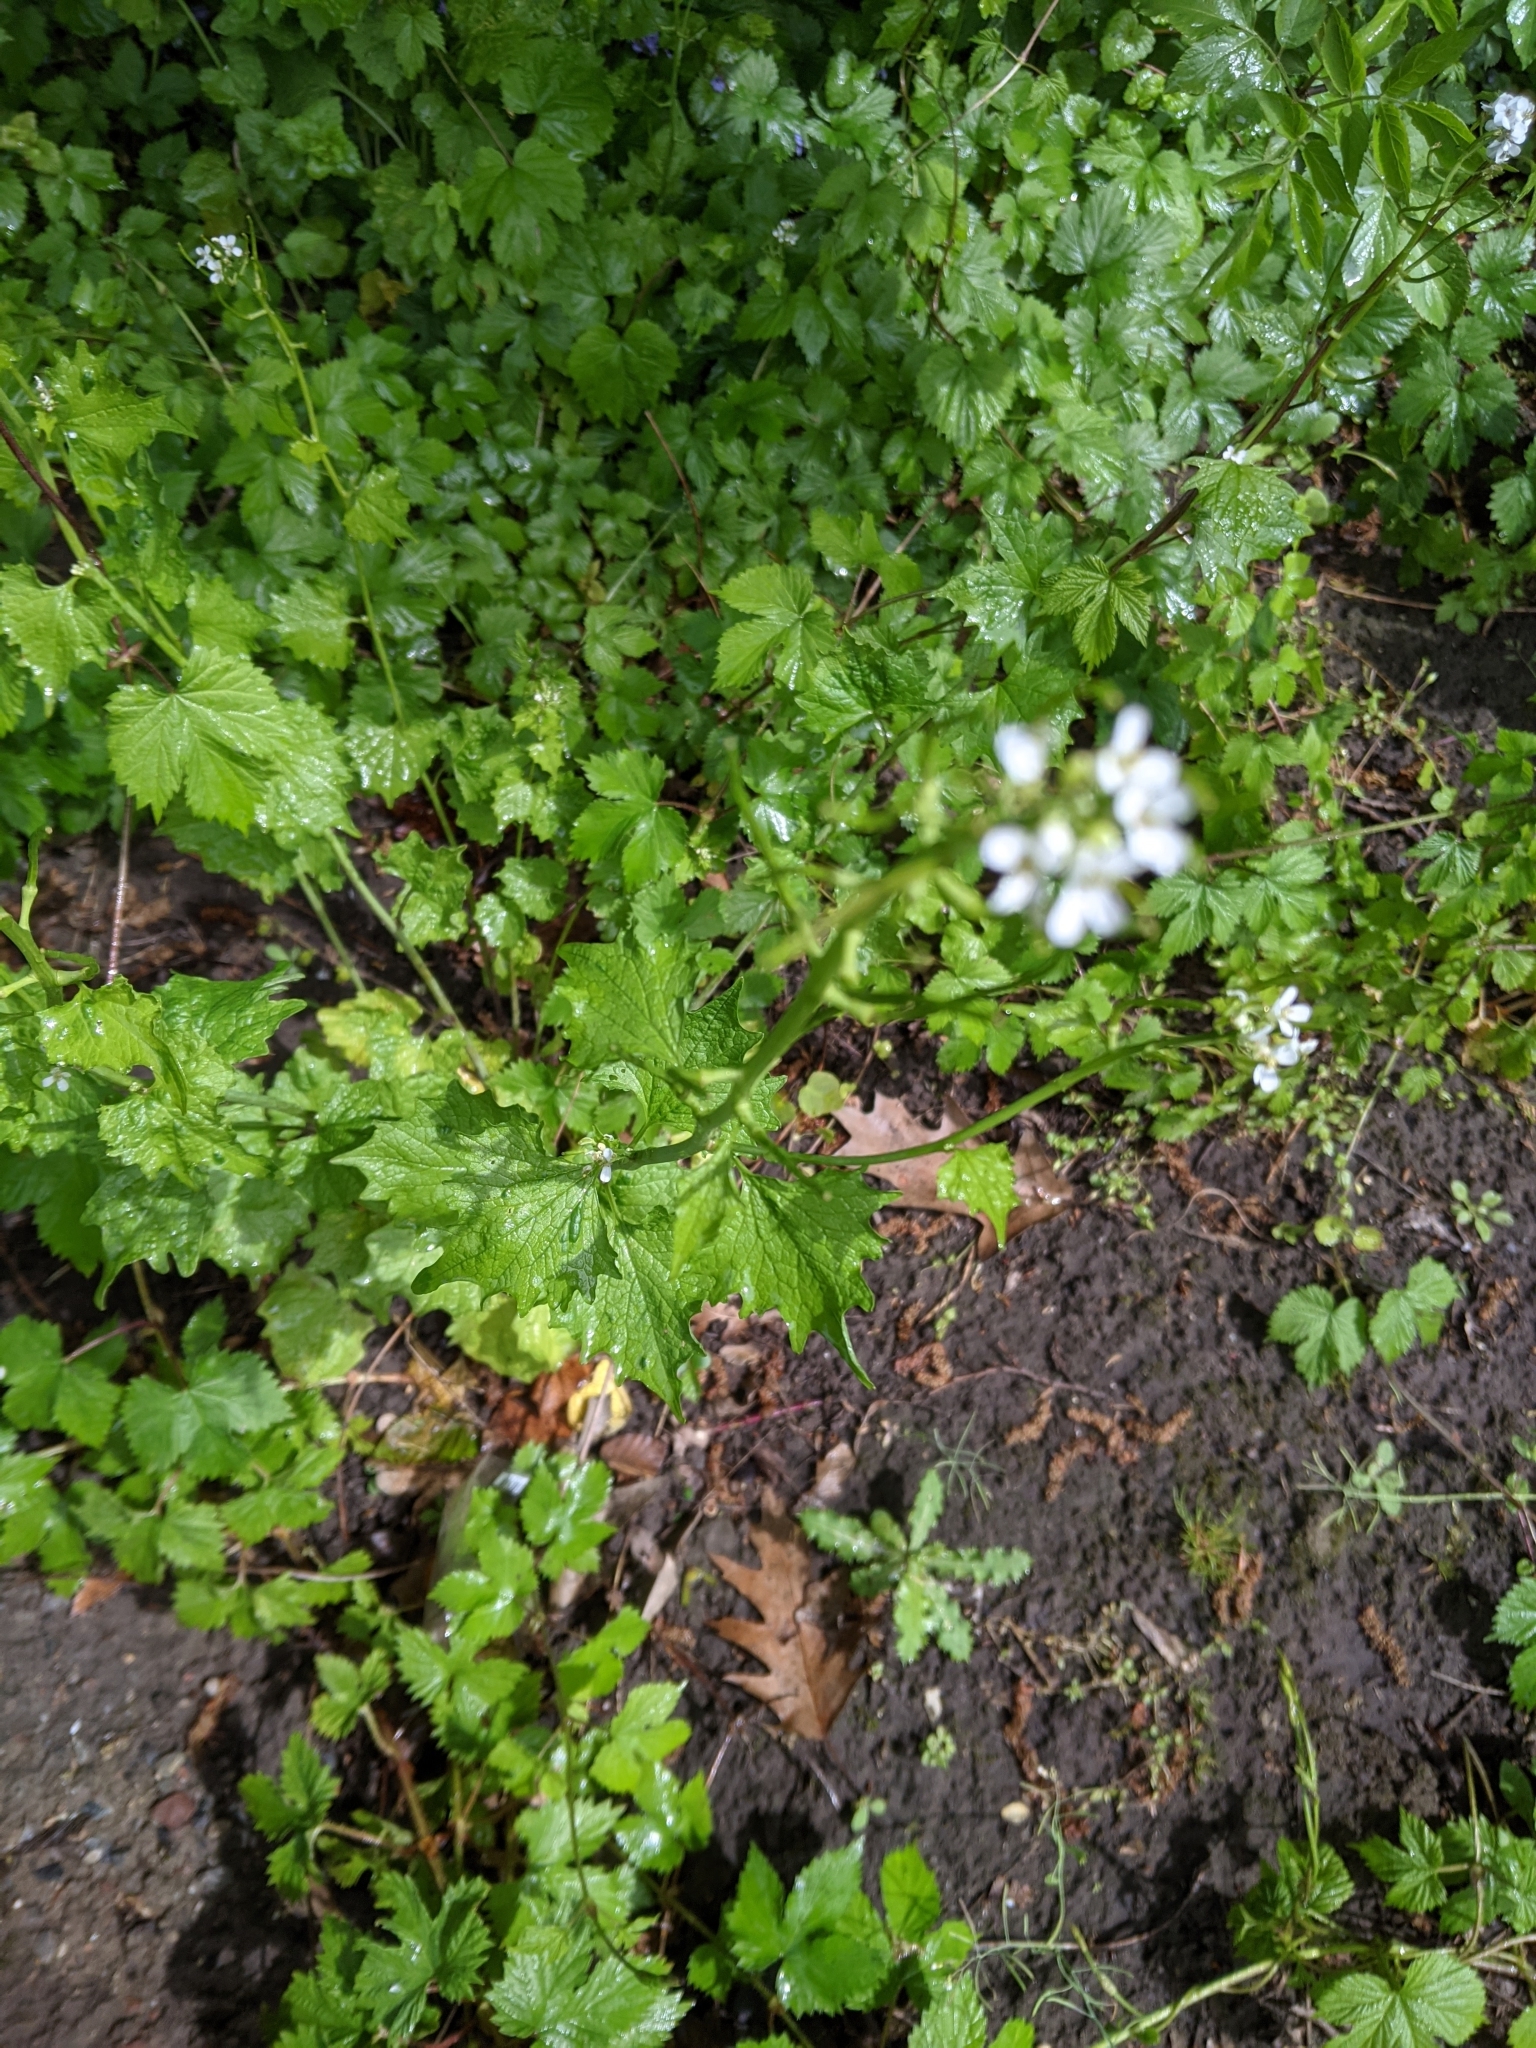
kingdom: Plantae
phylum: Tracheophyta
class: Magnoliopsida
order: Brassicales
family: Brassicaceae
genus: Alliaria
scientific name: Alliaria petiolata
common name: Garlic mustard
